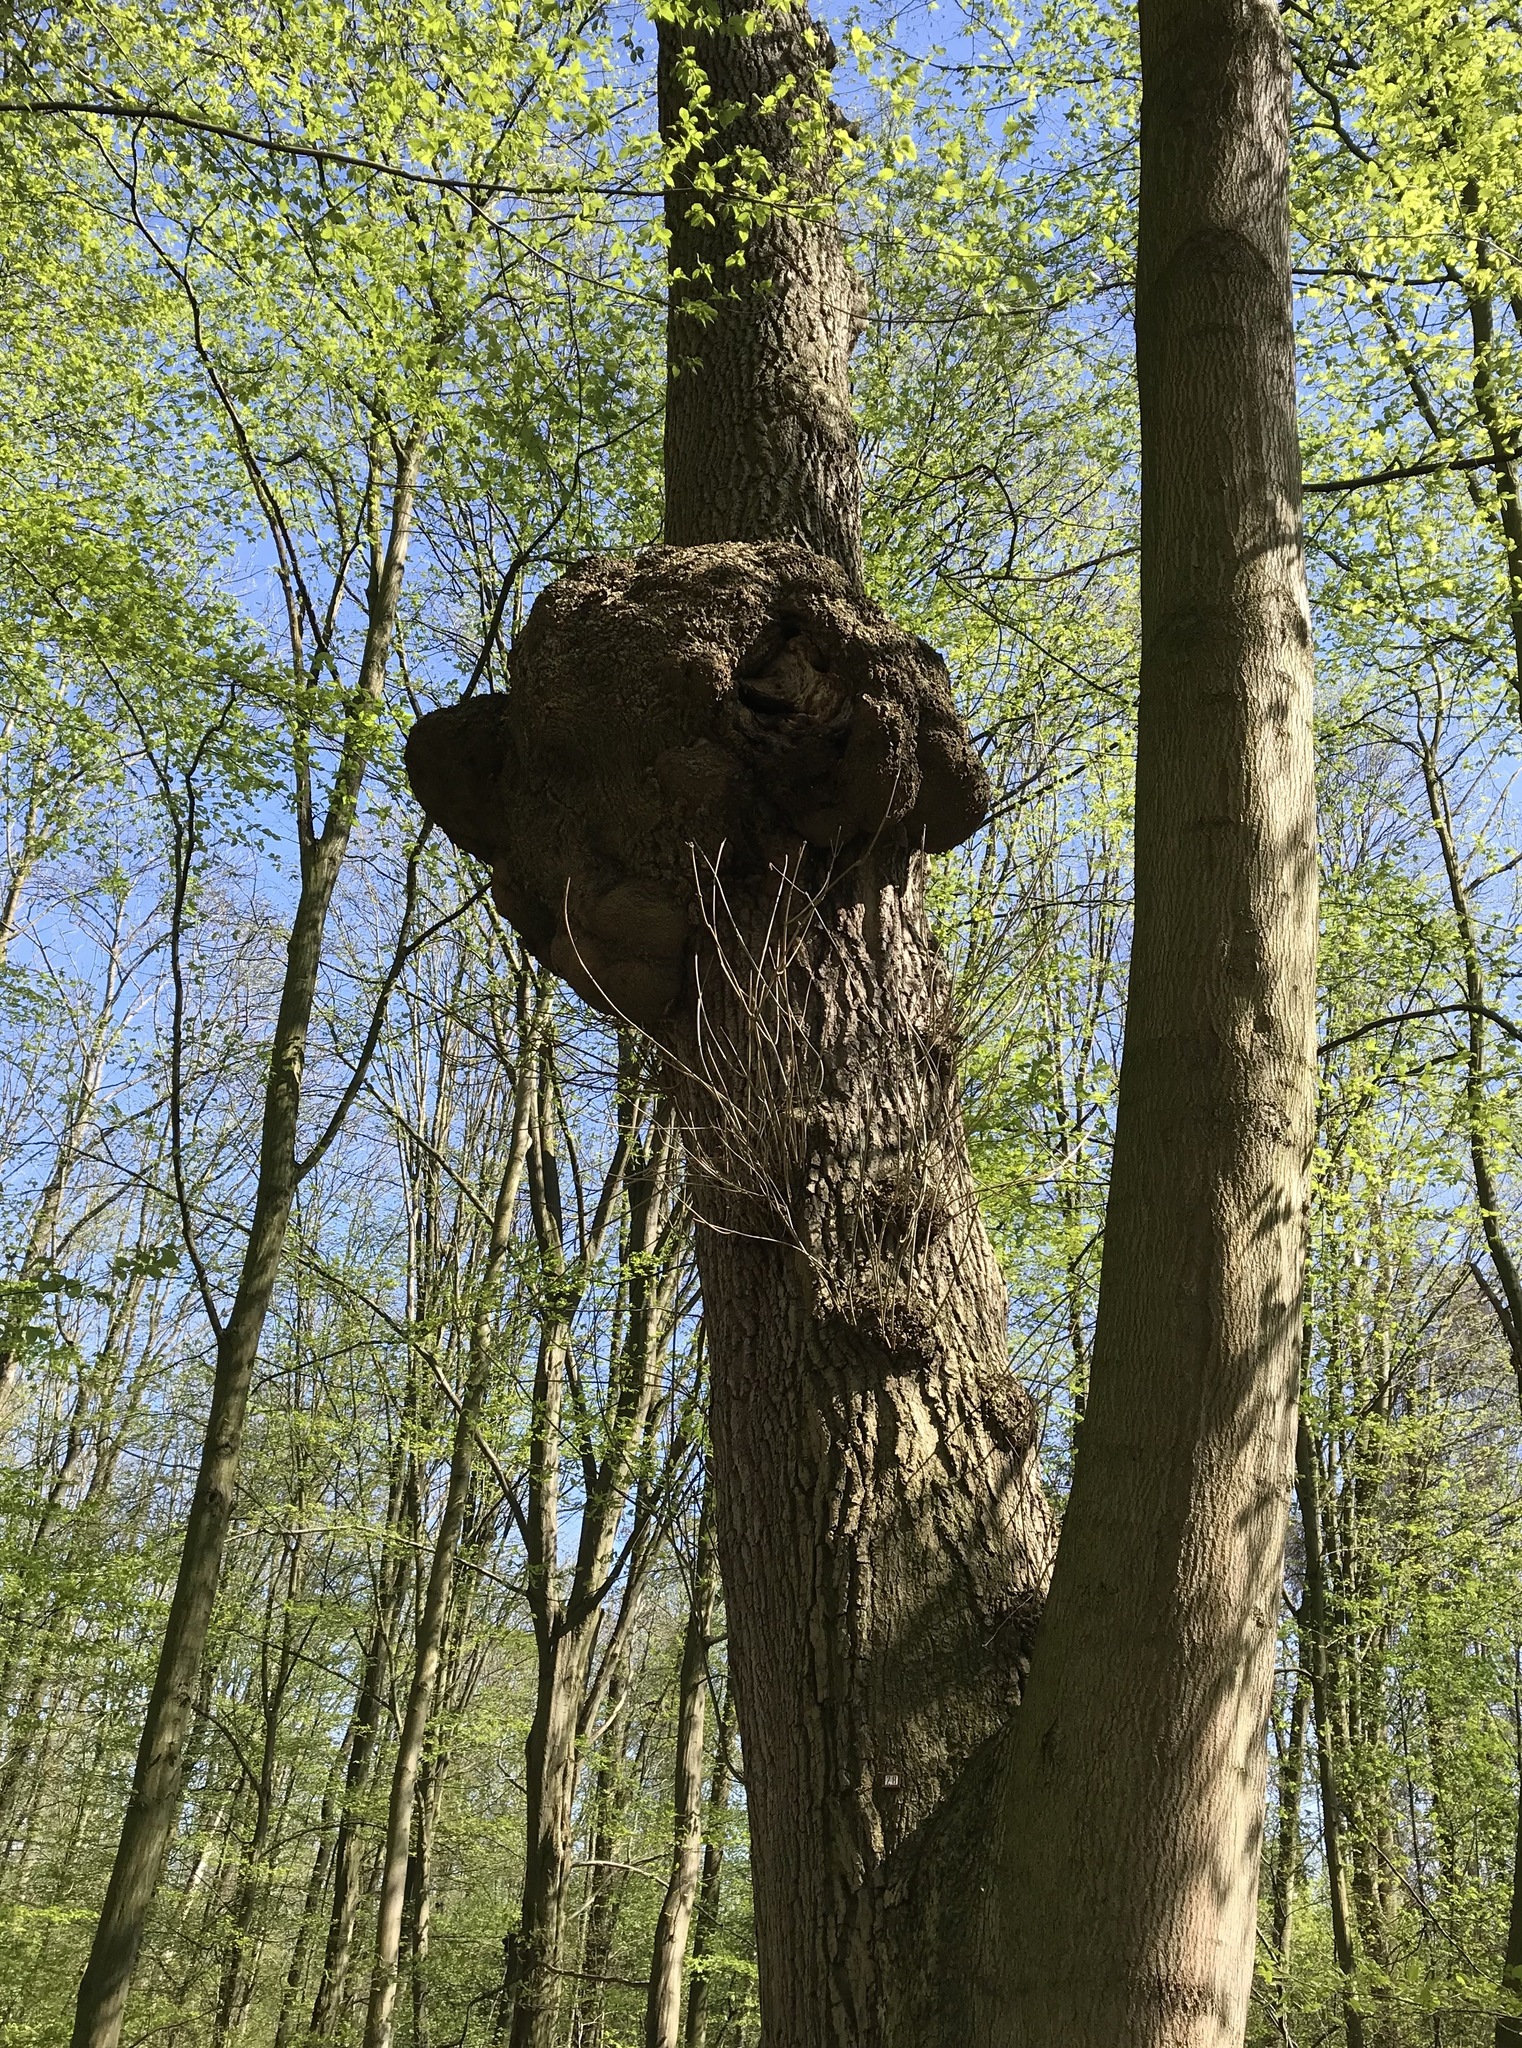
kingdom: Bacteria
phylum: Proteobacteria
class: Alphaproteobacteria
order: Rhizobiales
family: Rhizobiaceae
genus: Rhizobium
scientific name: Rhizobium Agrobacterium radiobacter
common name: Bacterial crown gall
